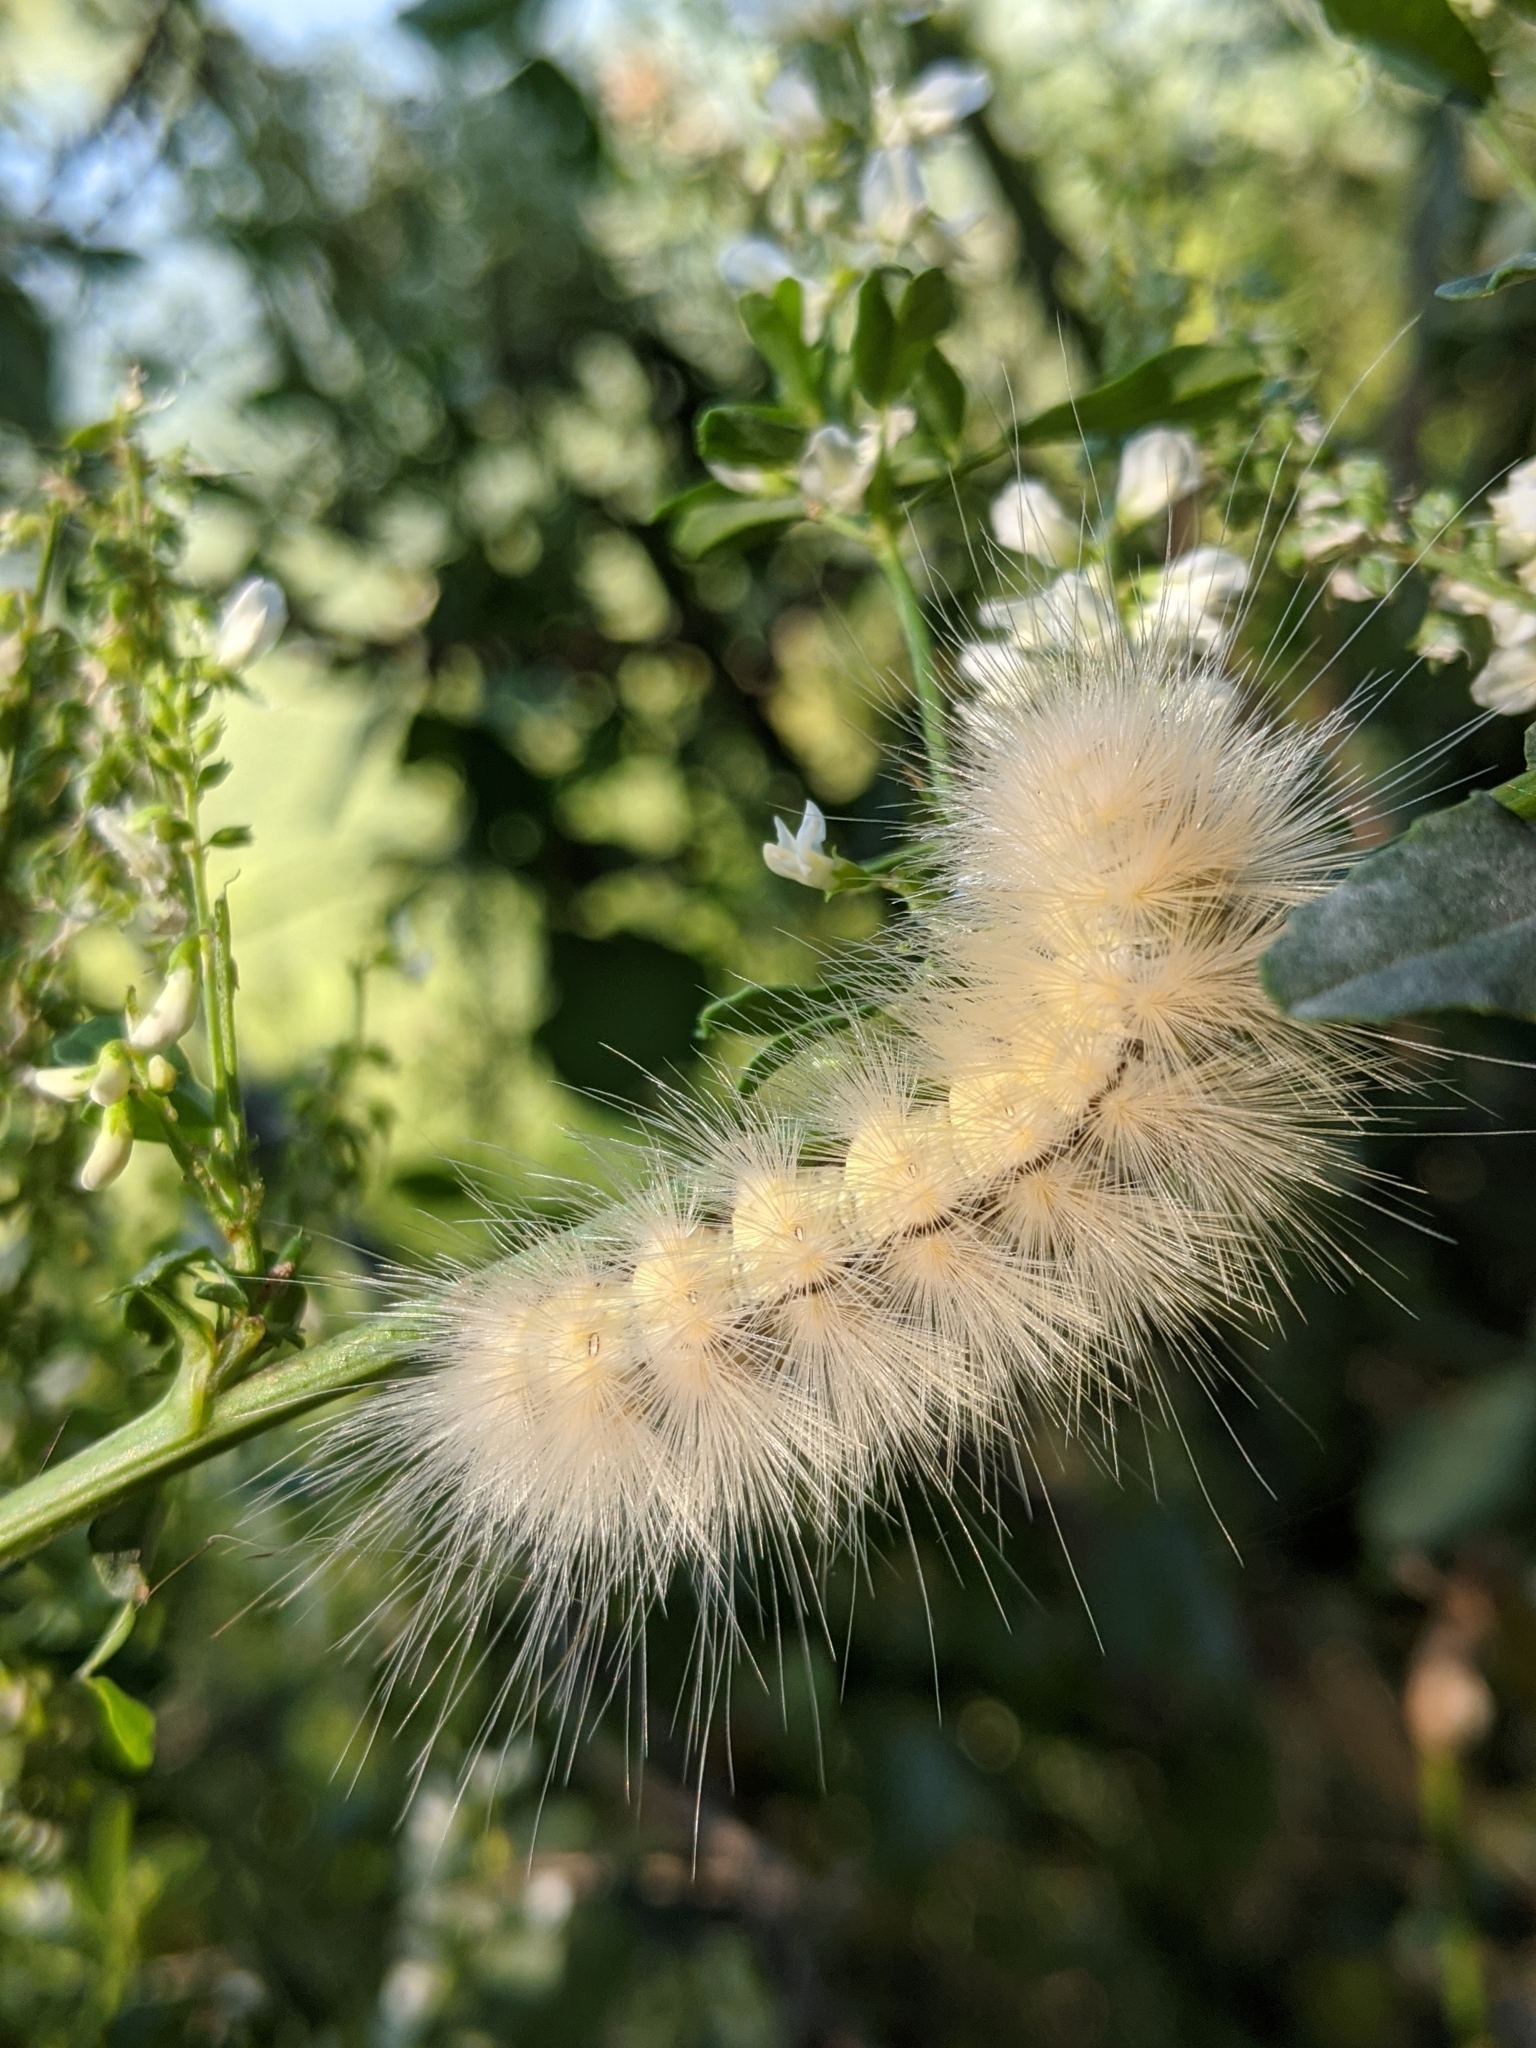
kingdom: Animalia
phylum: Arthropoda
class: Insecta
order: Lepidoptera
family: Erebidae
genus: Spilosoma
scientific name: Spilosoma virginica
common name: Virginia tiger moth
